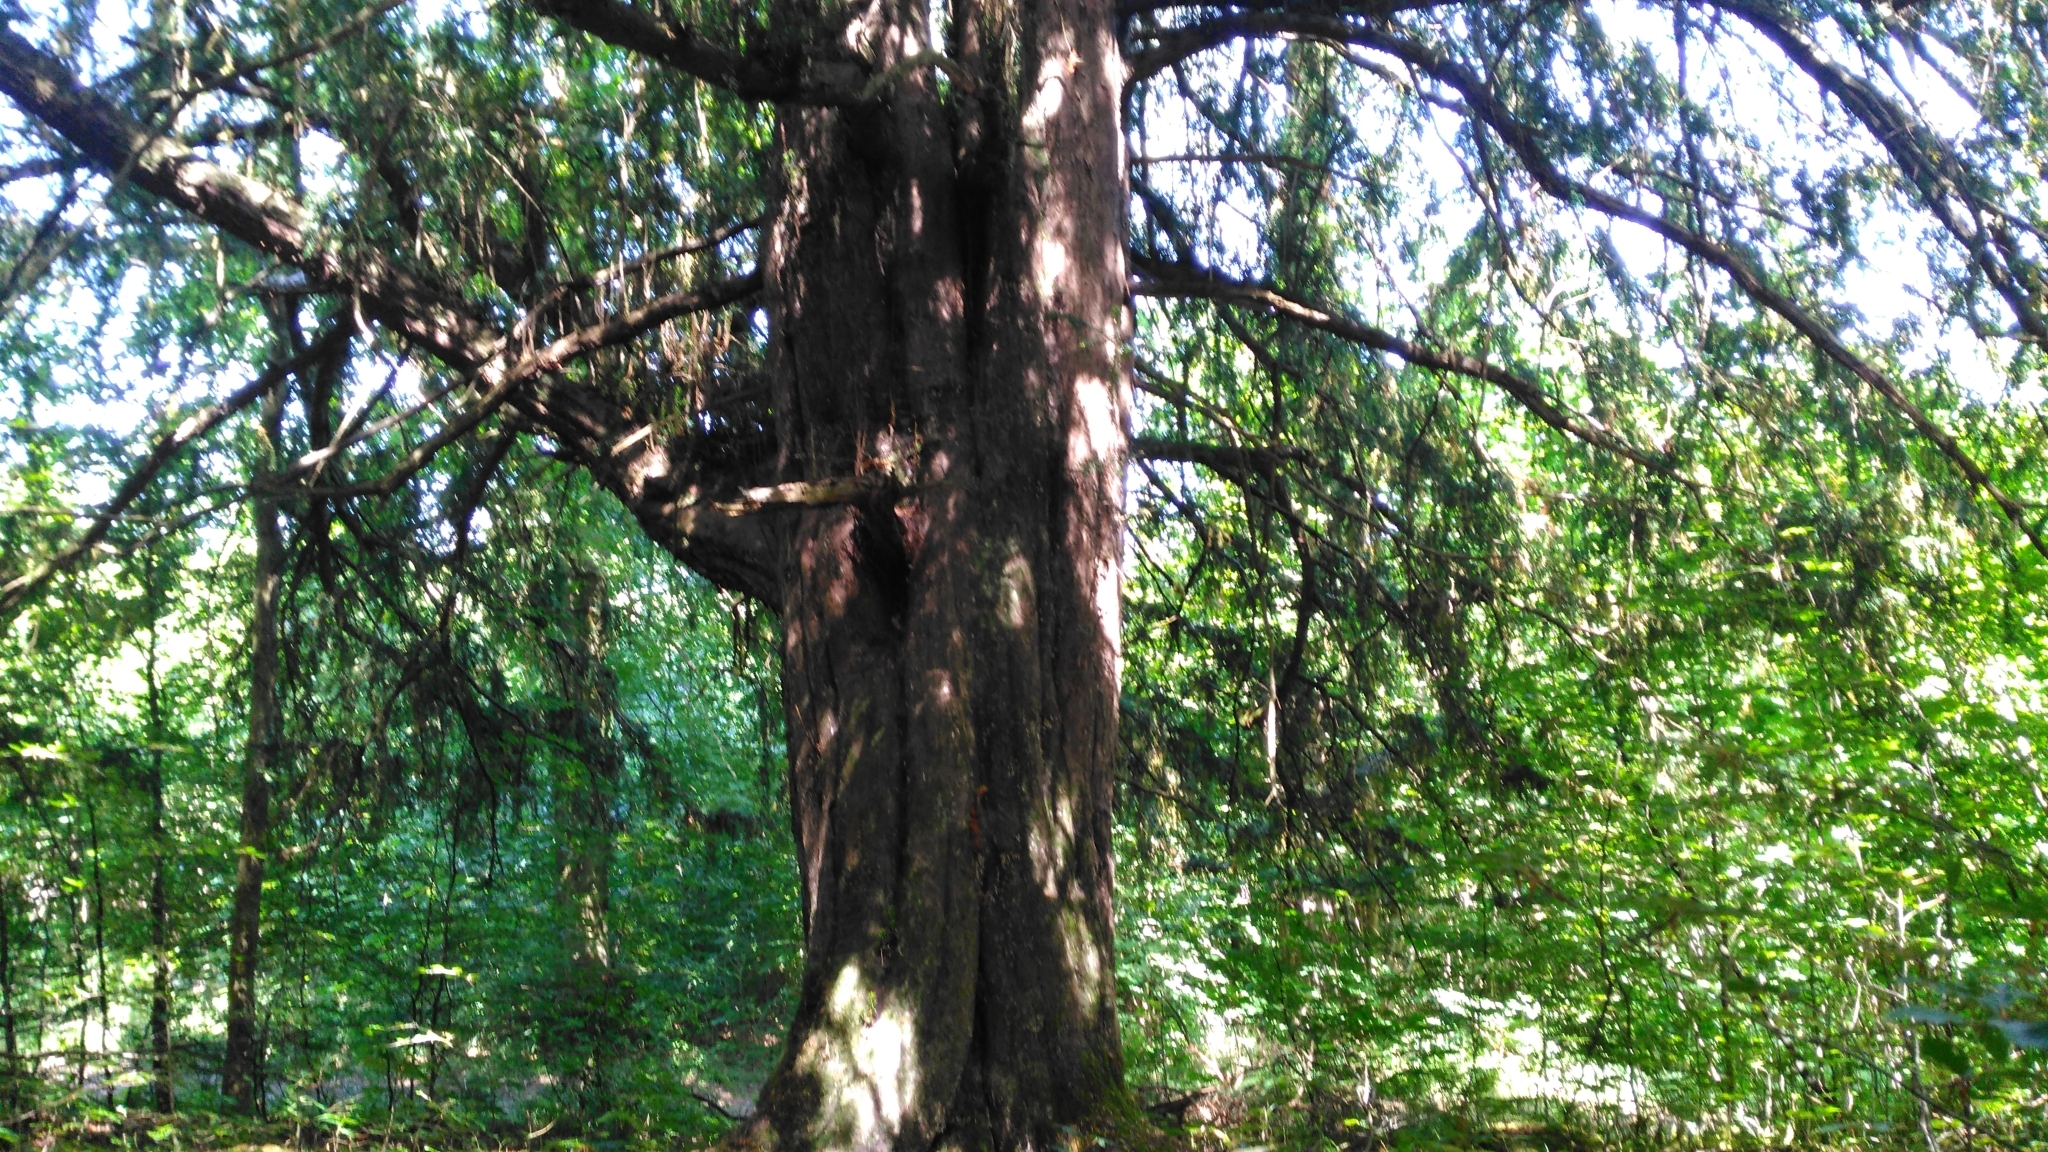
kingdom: Plantae
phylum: Tracheophyta
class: Pinopsida
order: Pinales
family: Taxaceae
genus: Taxus
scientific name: Taxus baccata
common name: Yew
